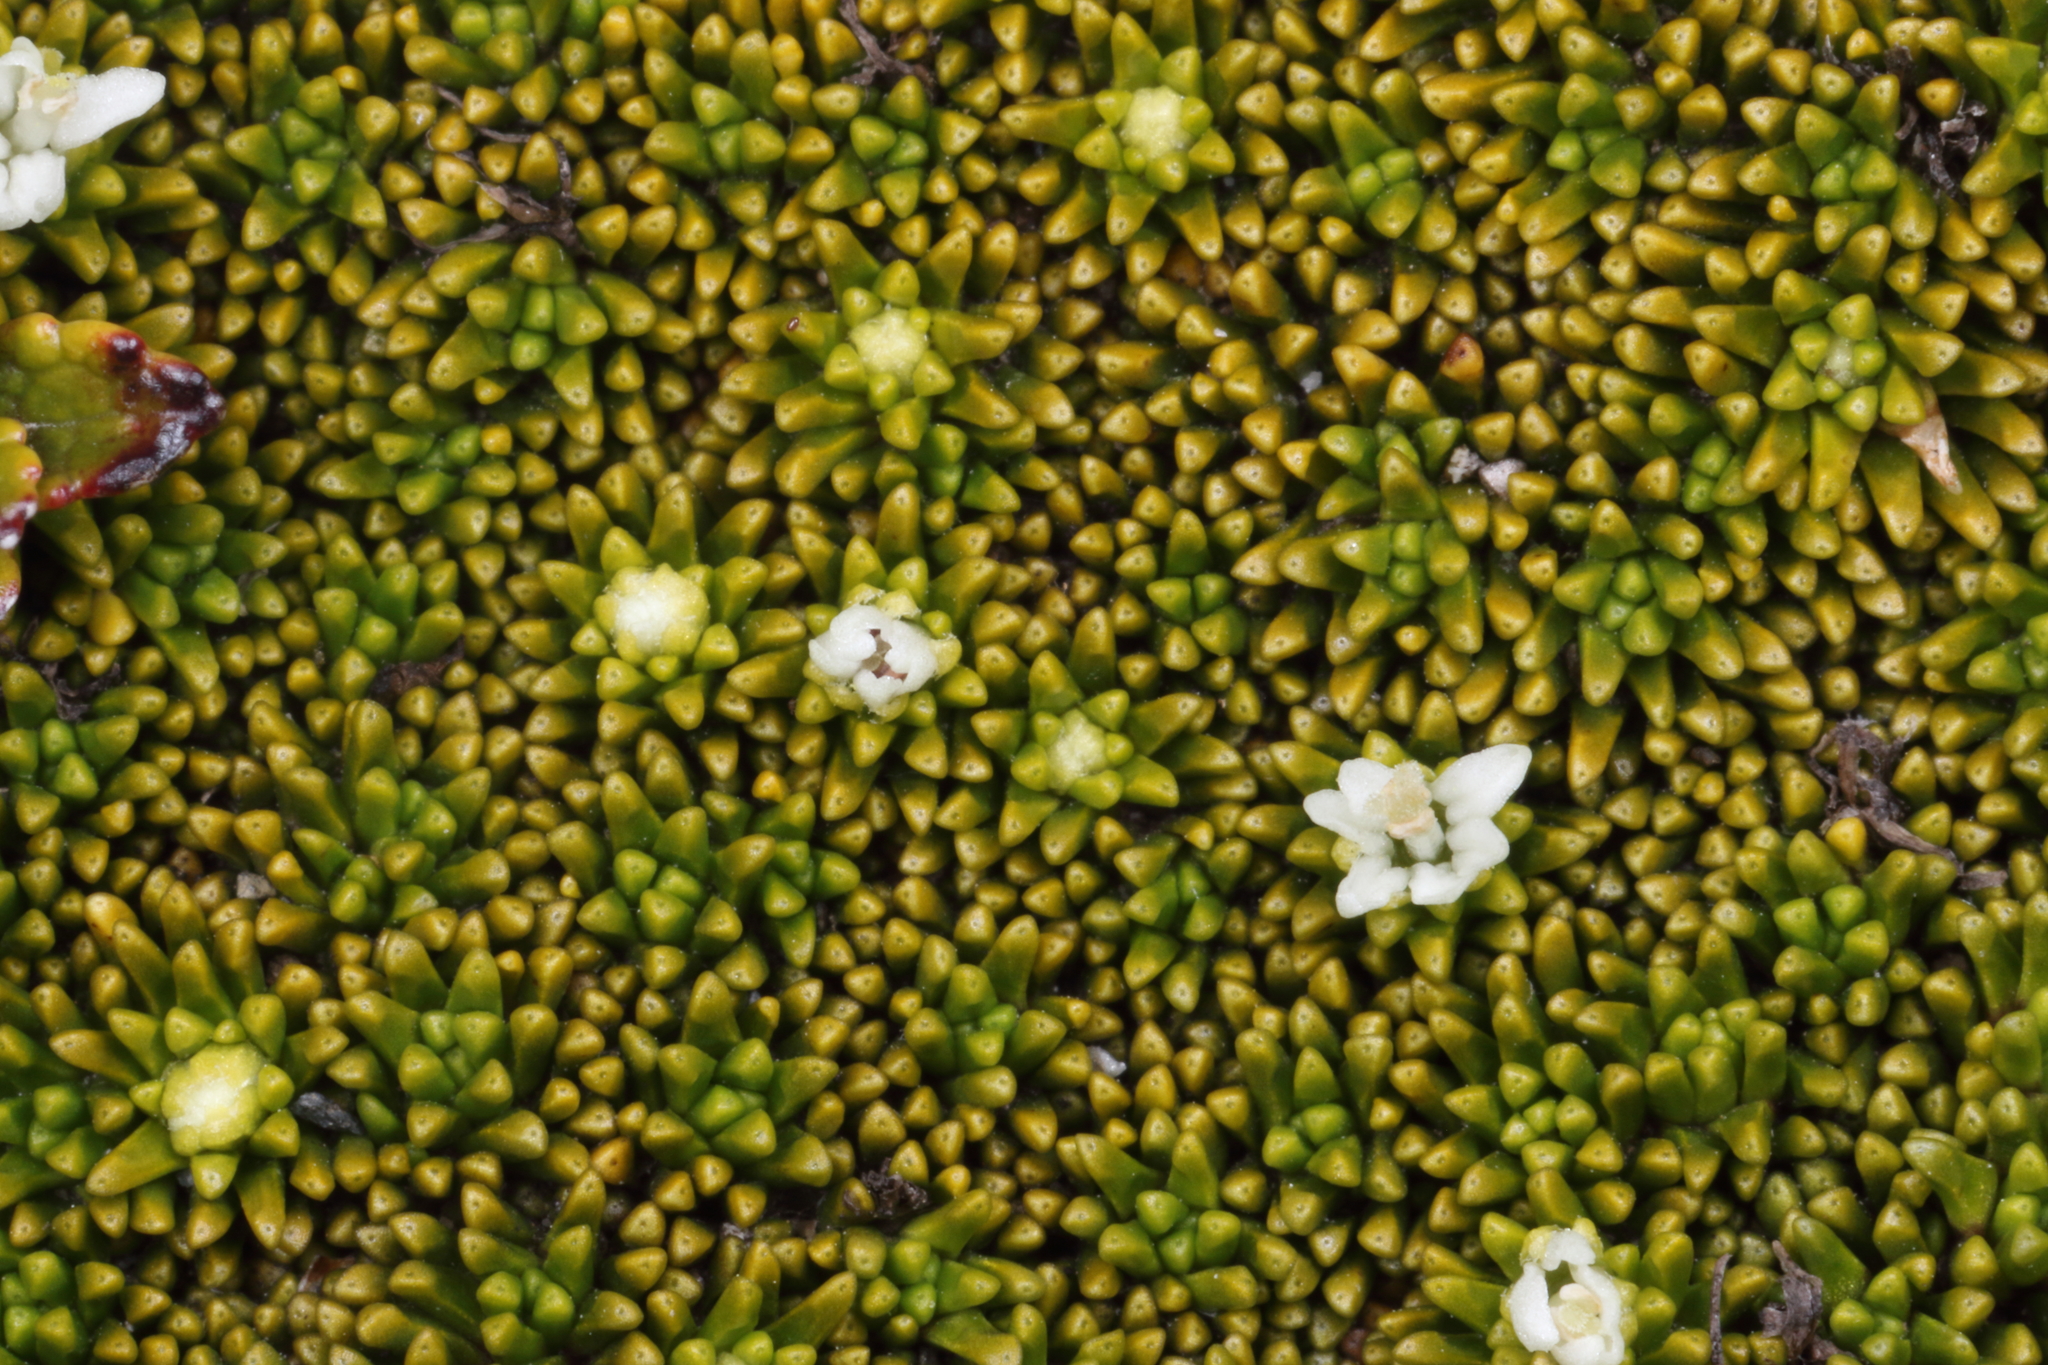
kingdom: Plantae
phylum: Tracheophyta
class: Magnoliopsida
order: Asterales
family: Stylidiaceae
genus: Phyllachne
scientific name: Phyllachne colensoi
